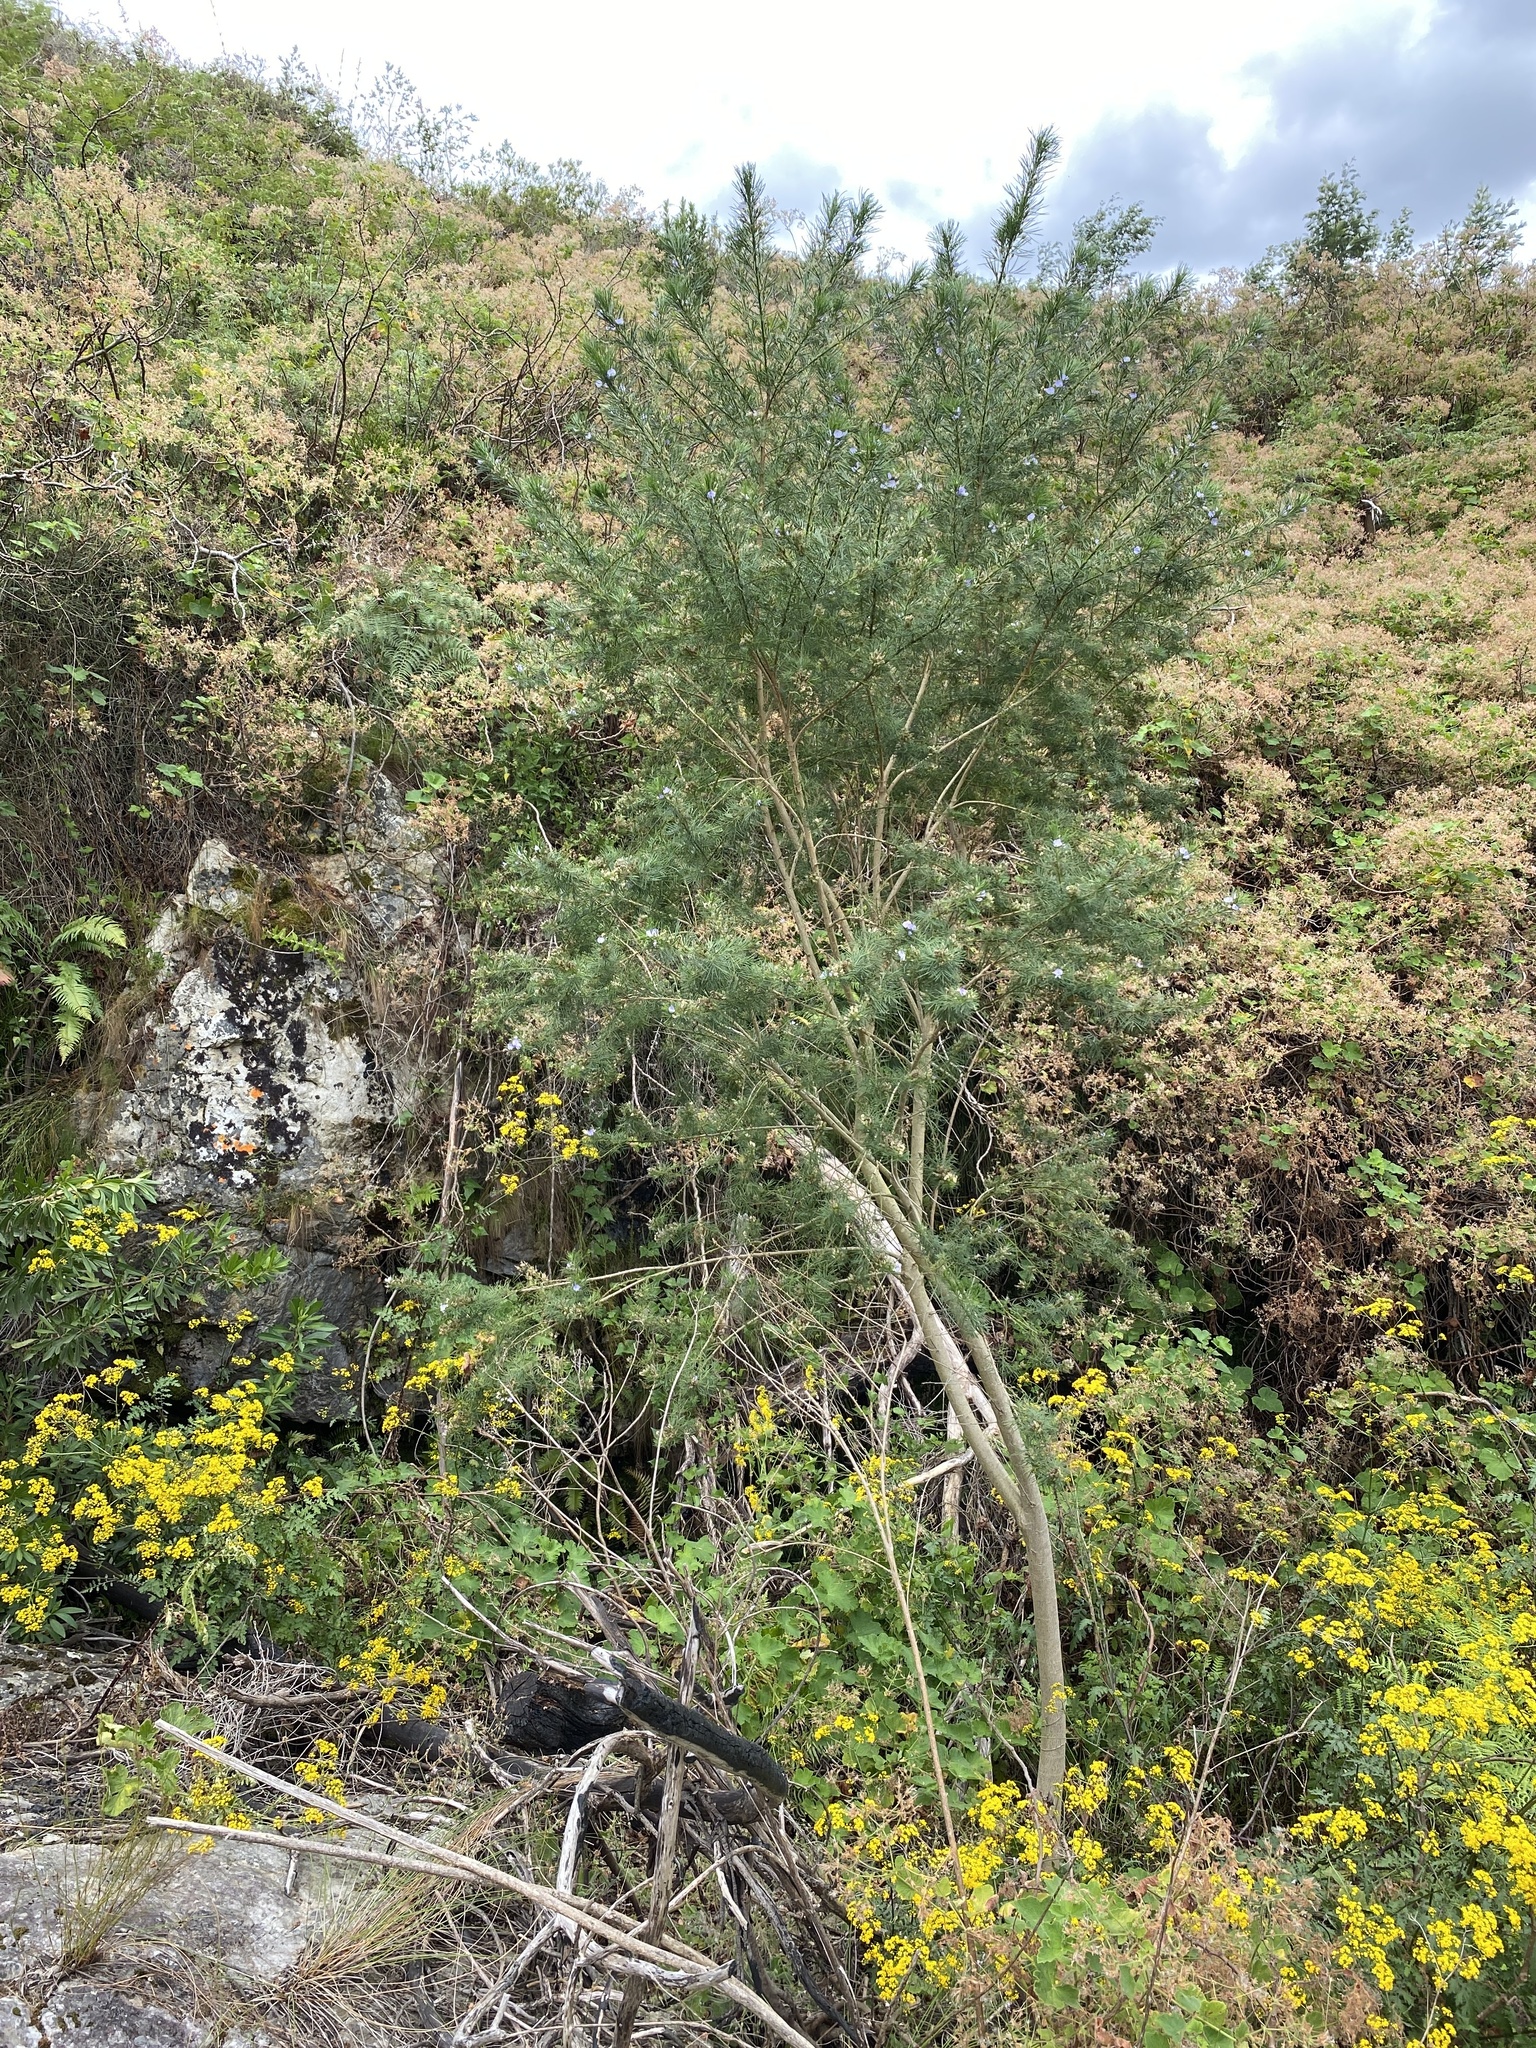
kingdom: Plantae
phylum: Tracheophyta
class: Magnoliopsida
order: Fabales
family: Fabaceae
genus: Psoralea
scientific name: Psoralea montana
